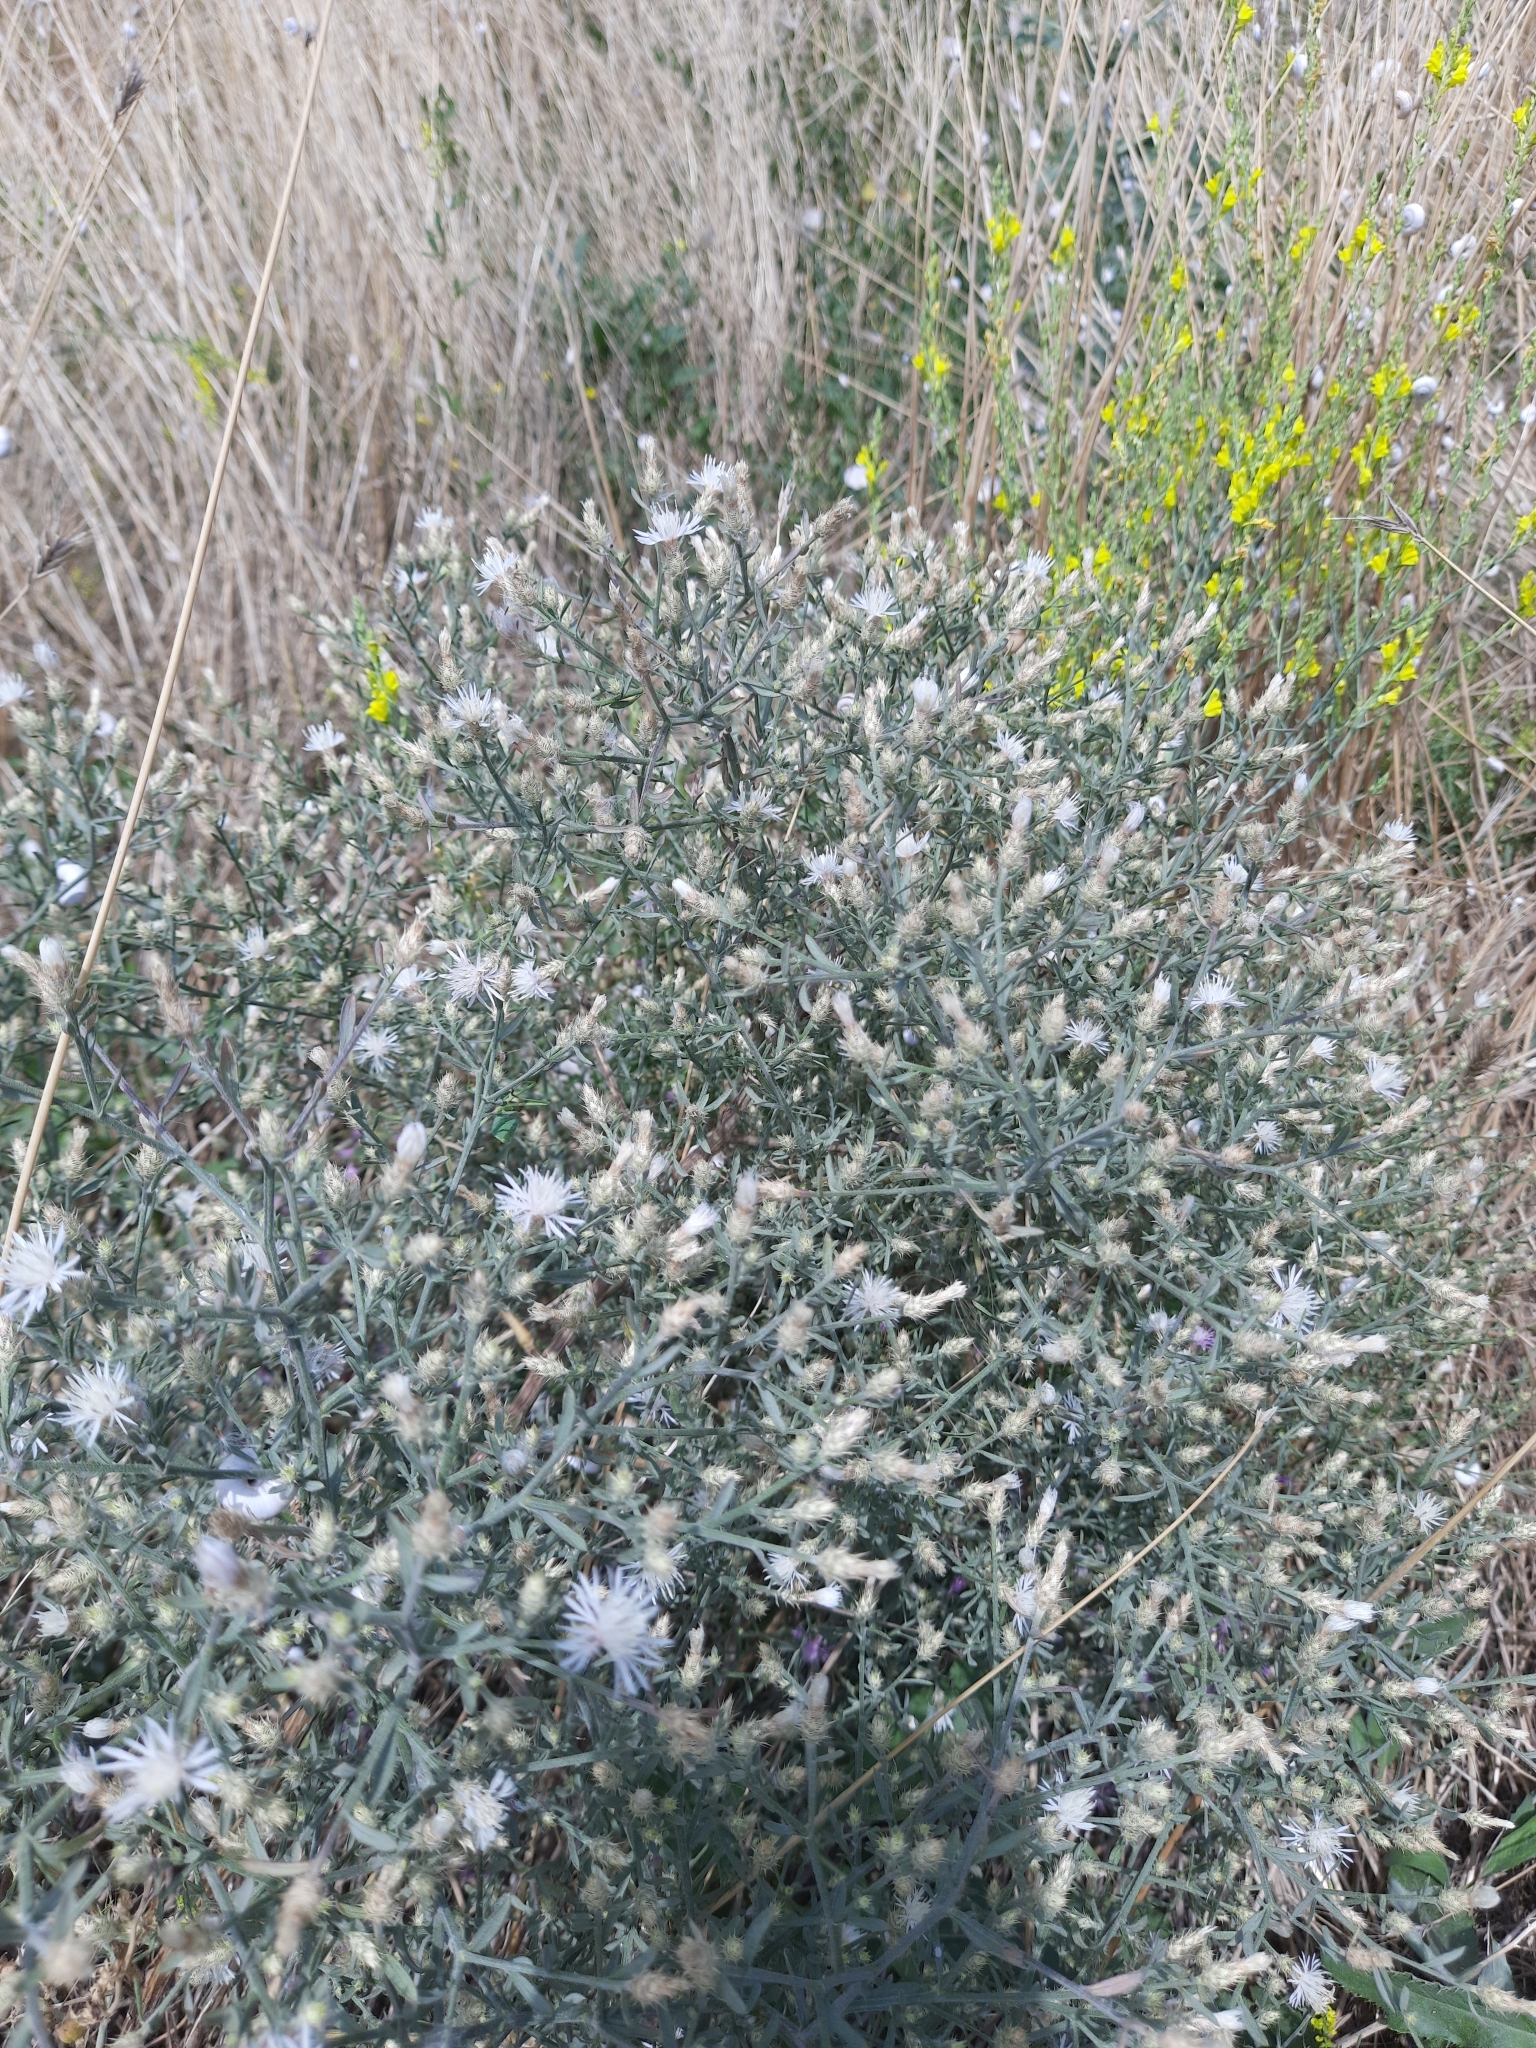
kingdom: Plantae
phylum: Tracheophyta
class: Magnoliopsida
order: Asterales
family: Asteraceae
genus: Centaurea
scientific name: Centaurea diffusa
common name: Diffuse knapweed
